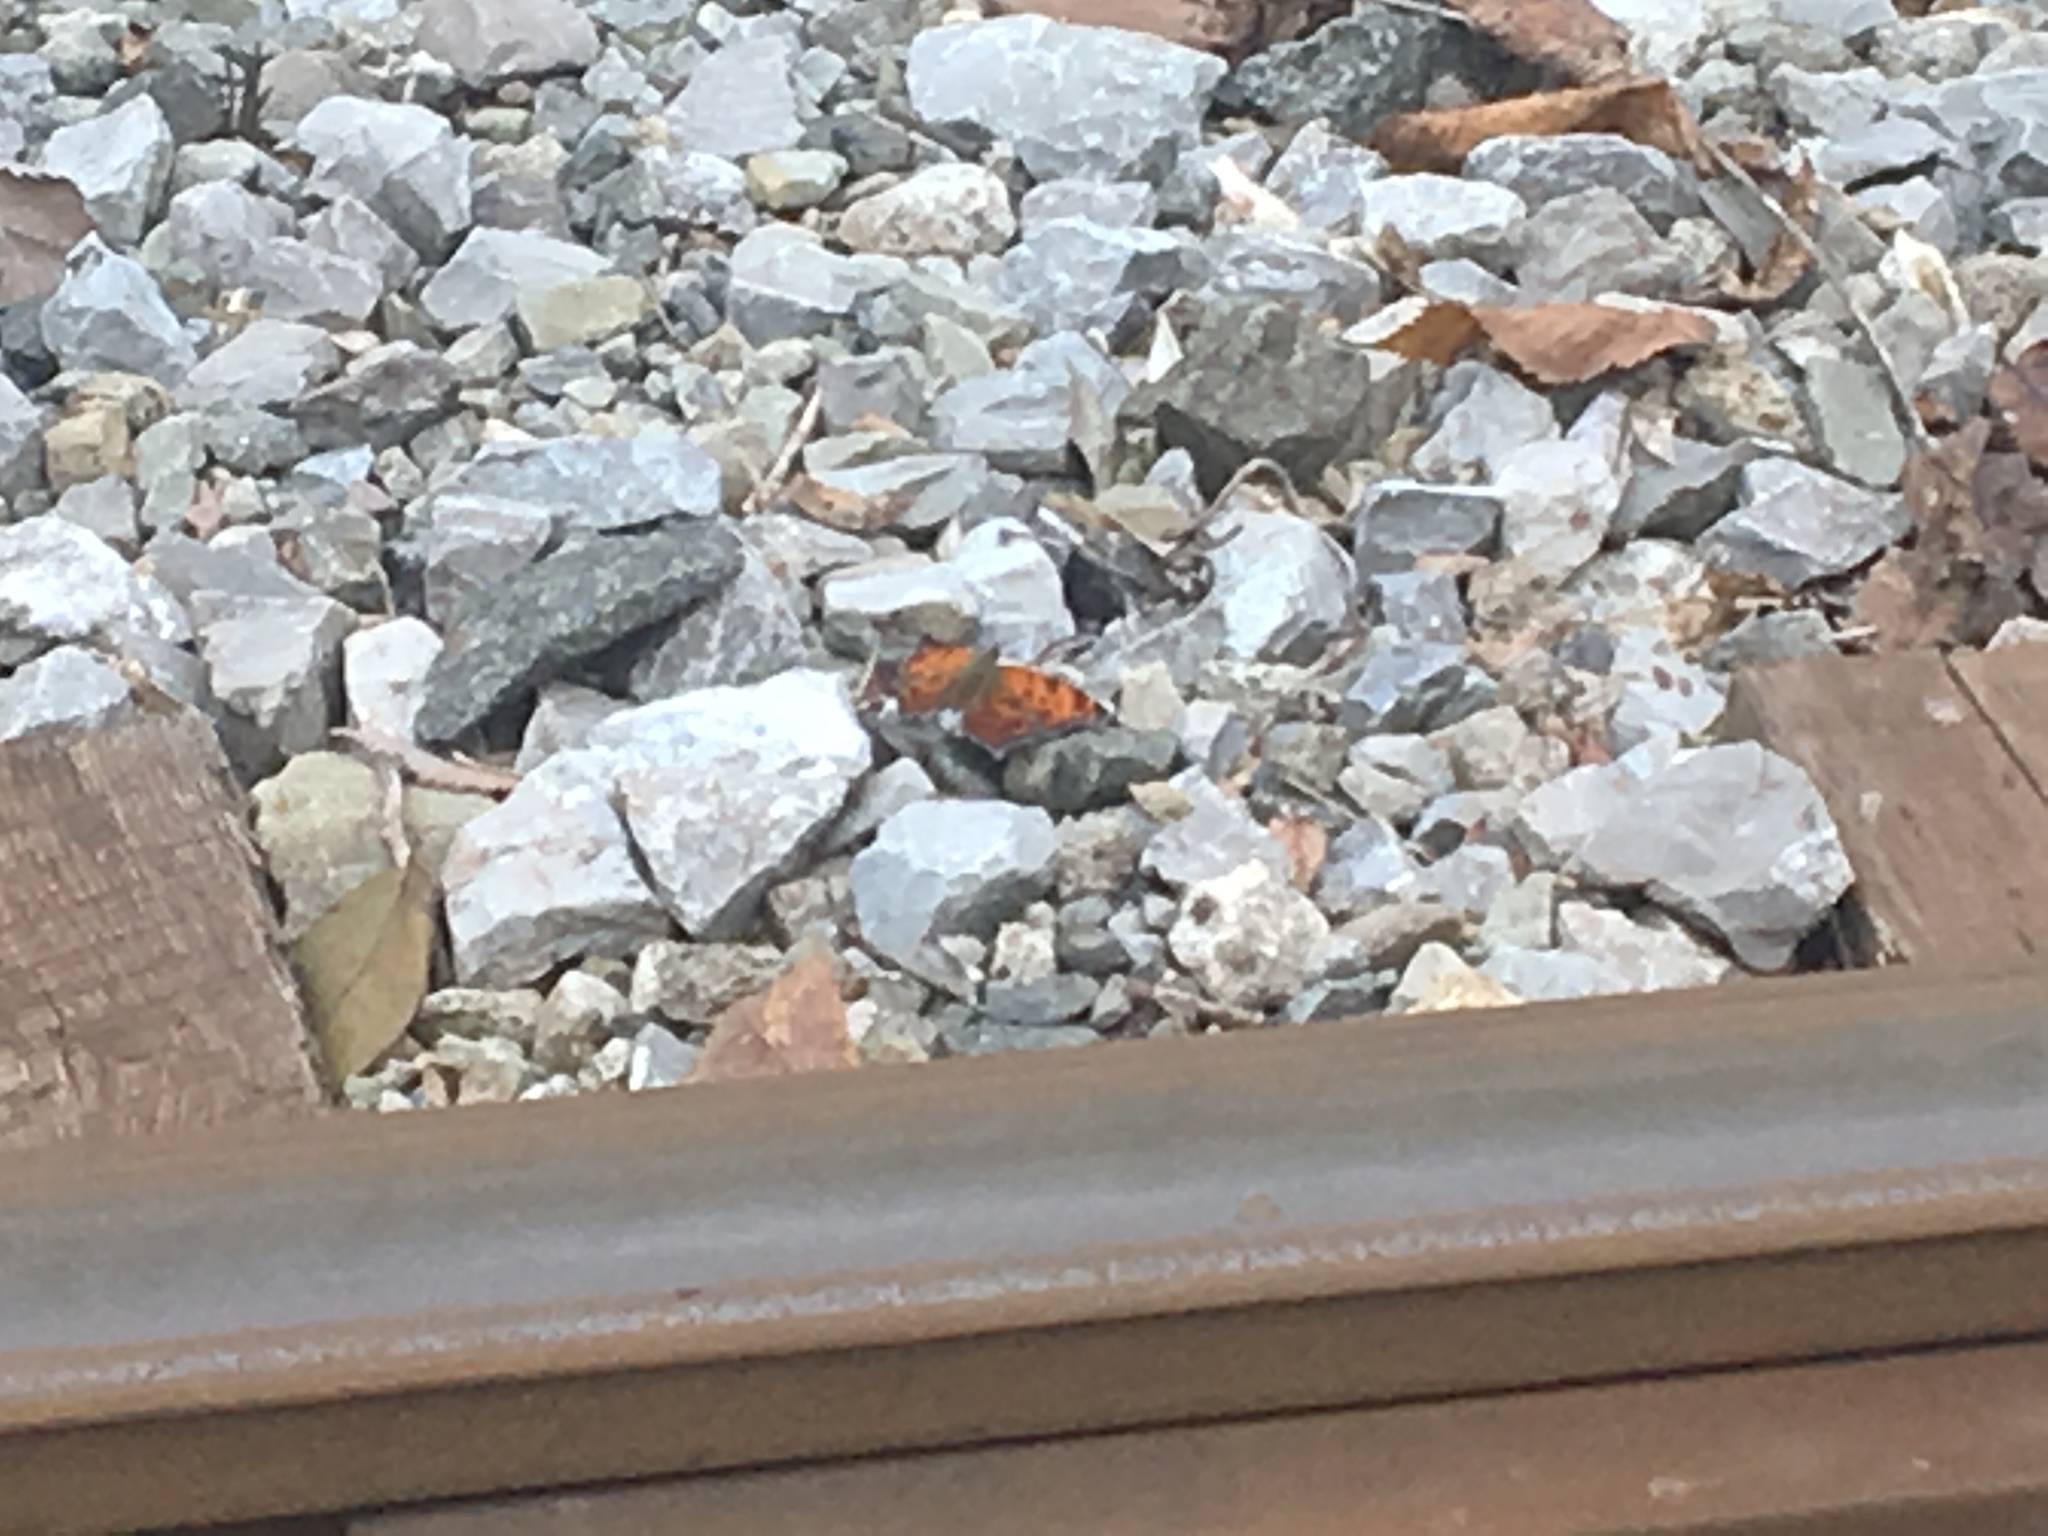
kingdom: Animalia
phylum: Arthropoda
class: Insecta
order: Lepidoptera
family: Nymphalidae
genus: Polygonia
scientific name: Polygonia comma
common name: Eastern comma
